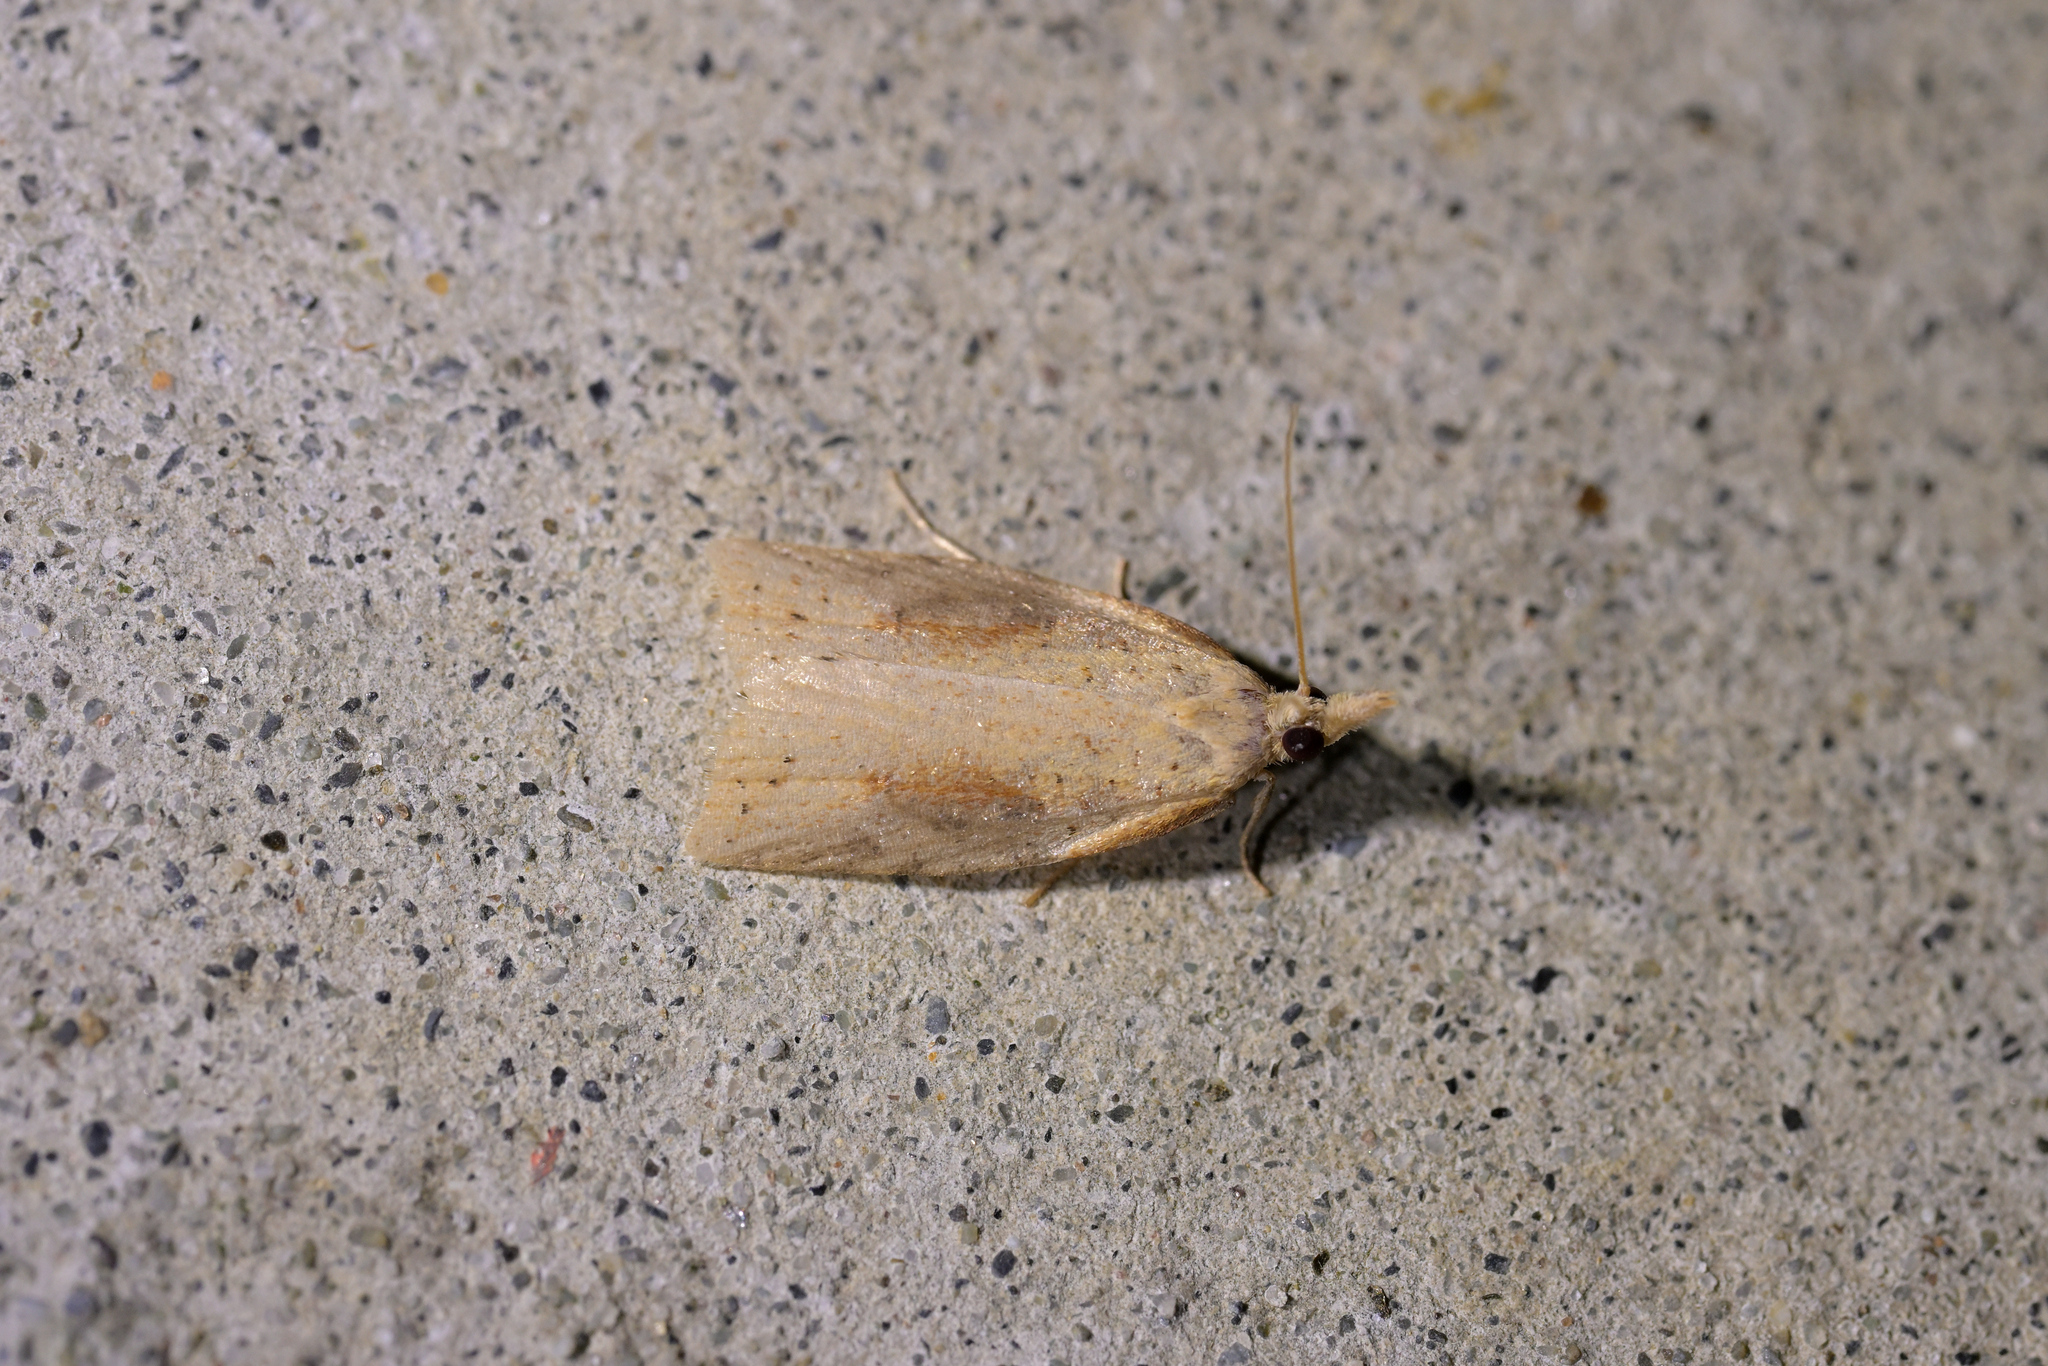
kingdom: Animalia
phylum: Arthropoda
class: Insecta
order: Lepidoptera
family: Tortricidae
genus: Apoctena
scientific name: Apoctena conditana
